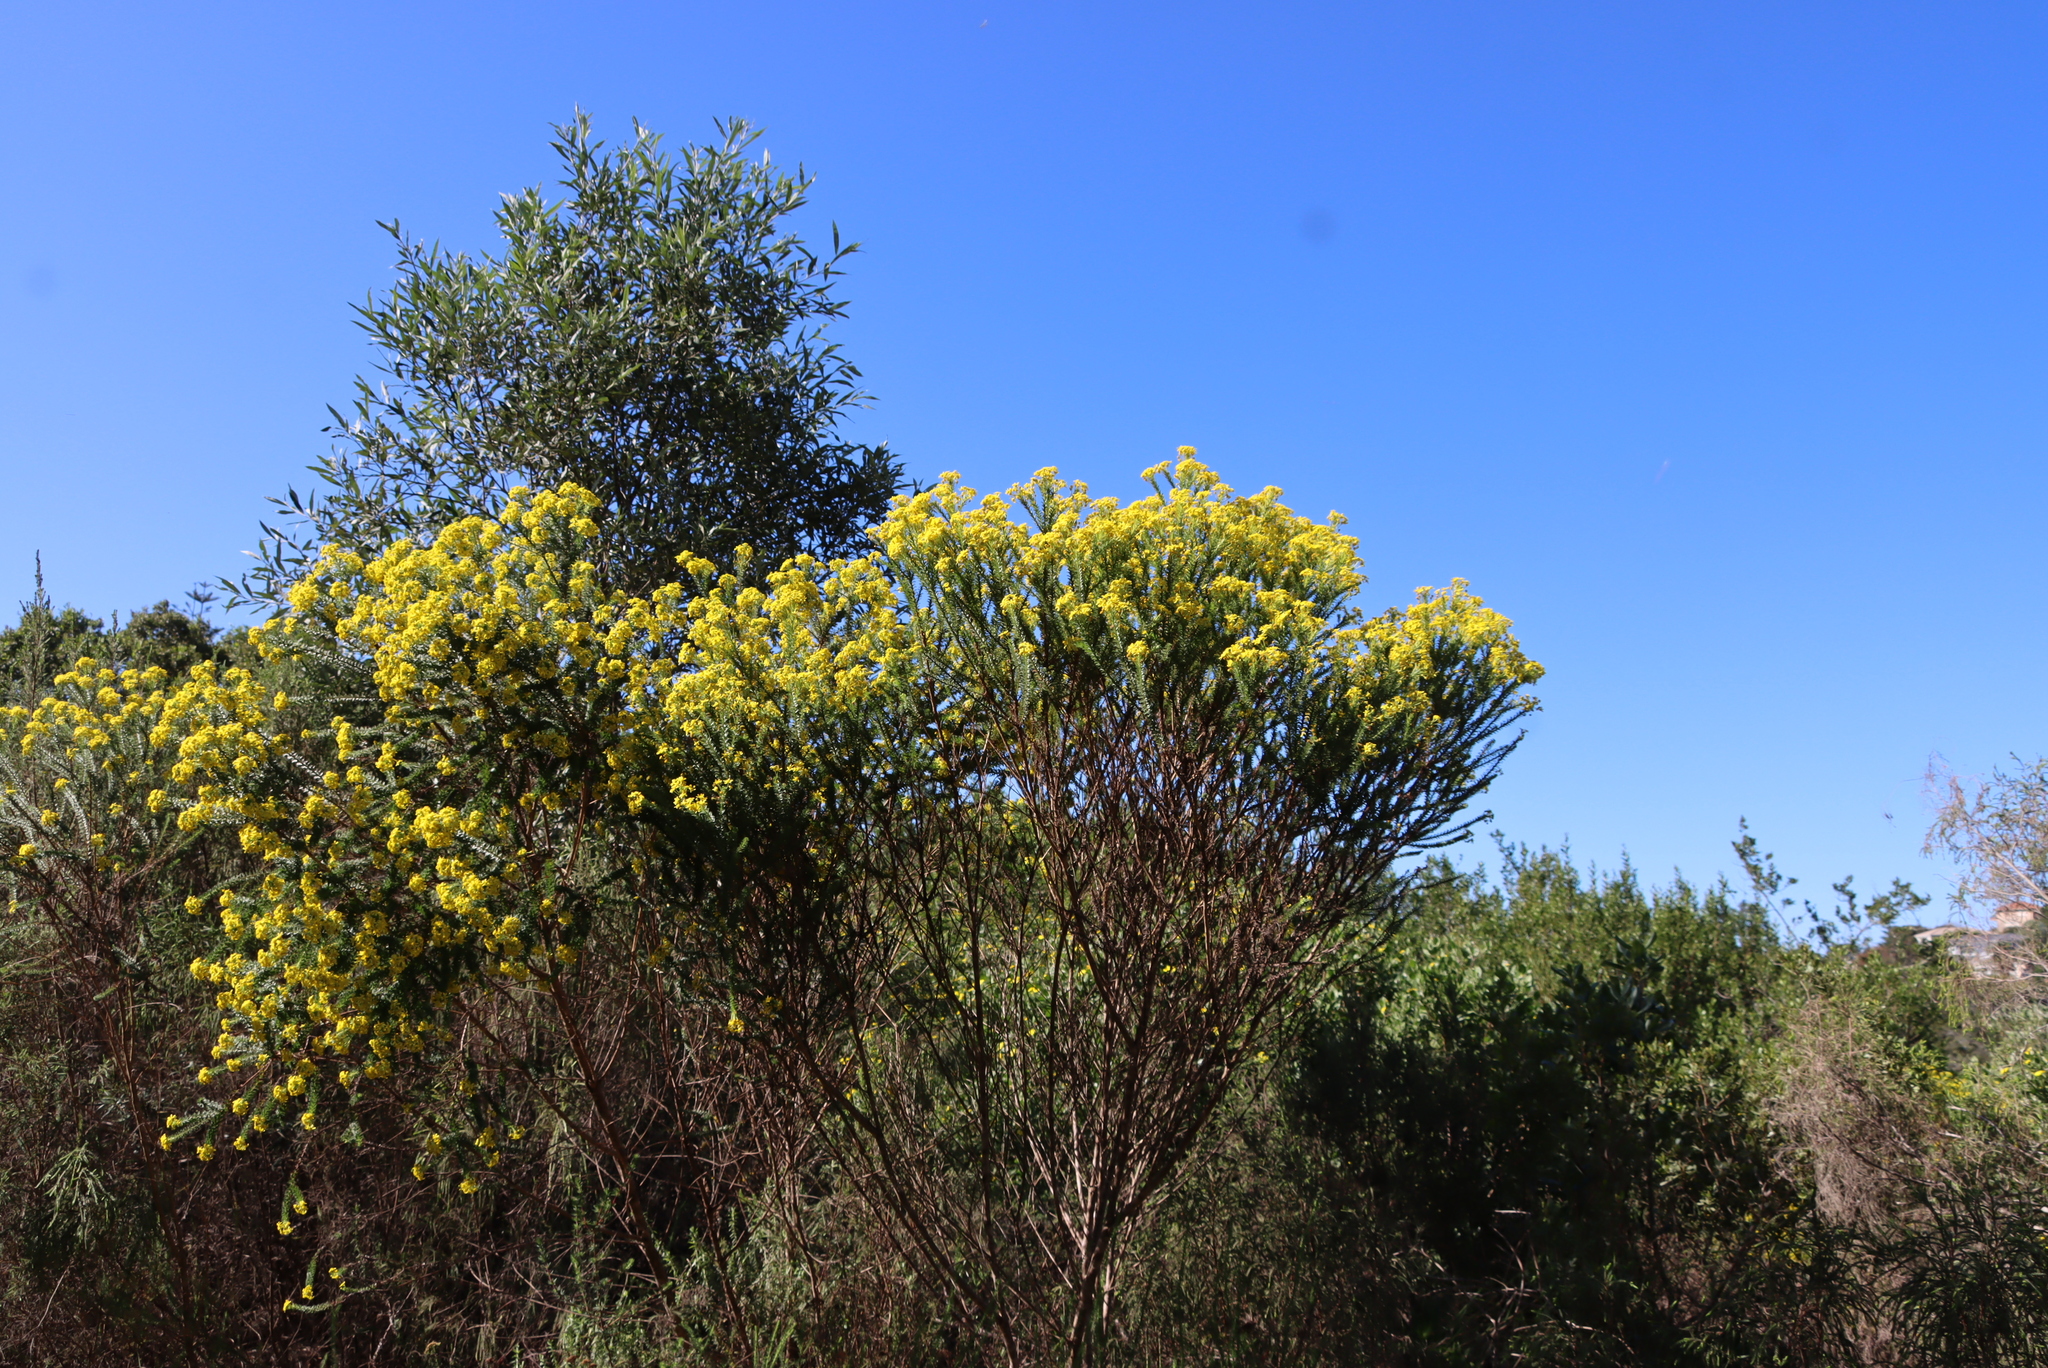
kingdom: Plantae
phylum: Tracheophyta
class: Magnoliopsida
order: Asterales
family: Asteraceae
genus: Euryops
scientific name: Euryops virgineus
